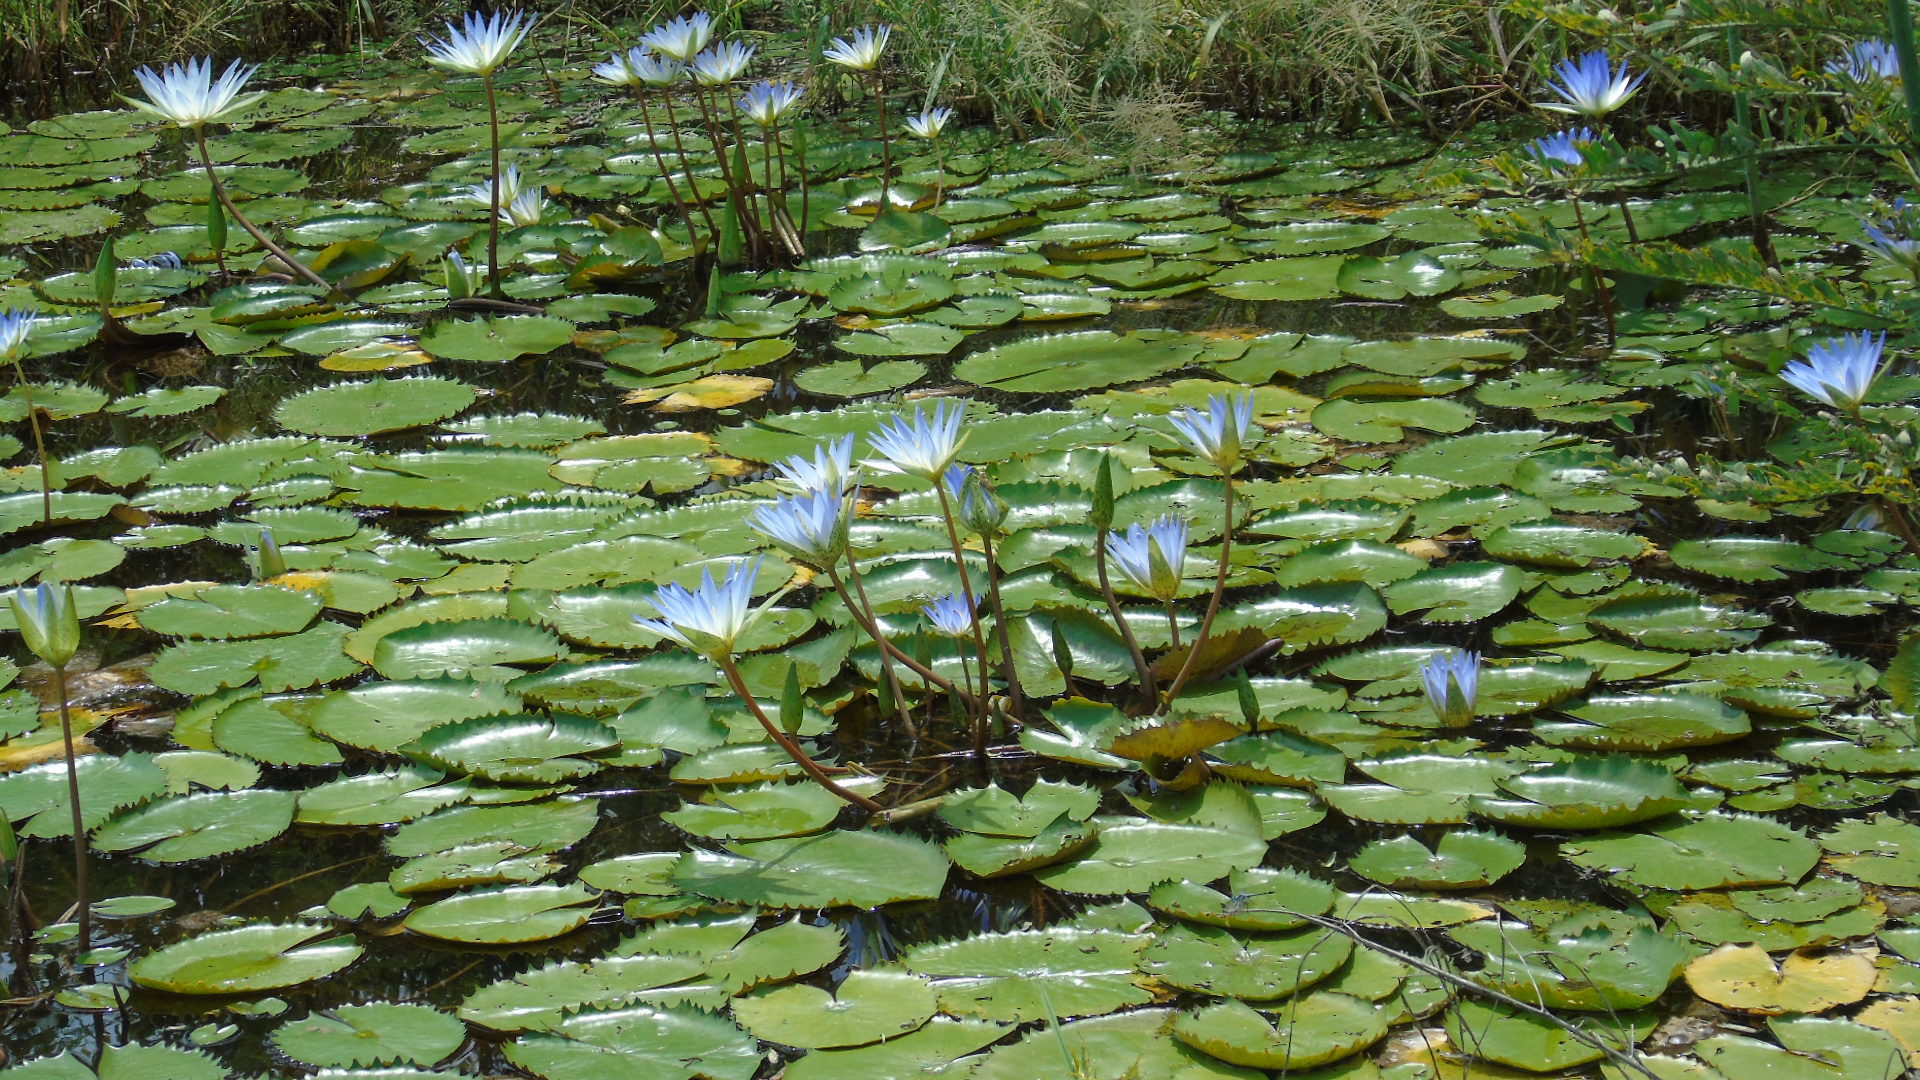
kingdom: Plantae
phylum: Tracheophyta
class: Magnoliopsida
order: Nymphaeales
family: Nymphaeaceae
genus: Nymphaea
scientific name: Nymphaea elegans
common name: Blue water-lily
